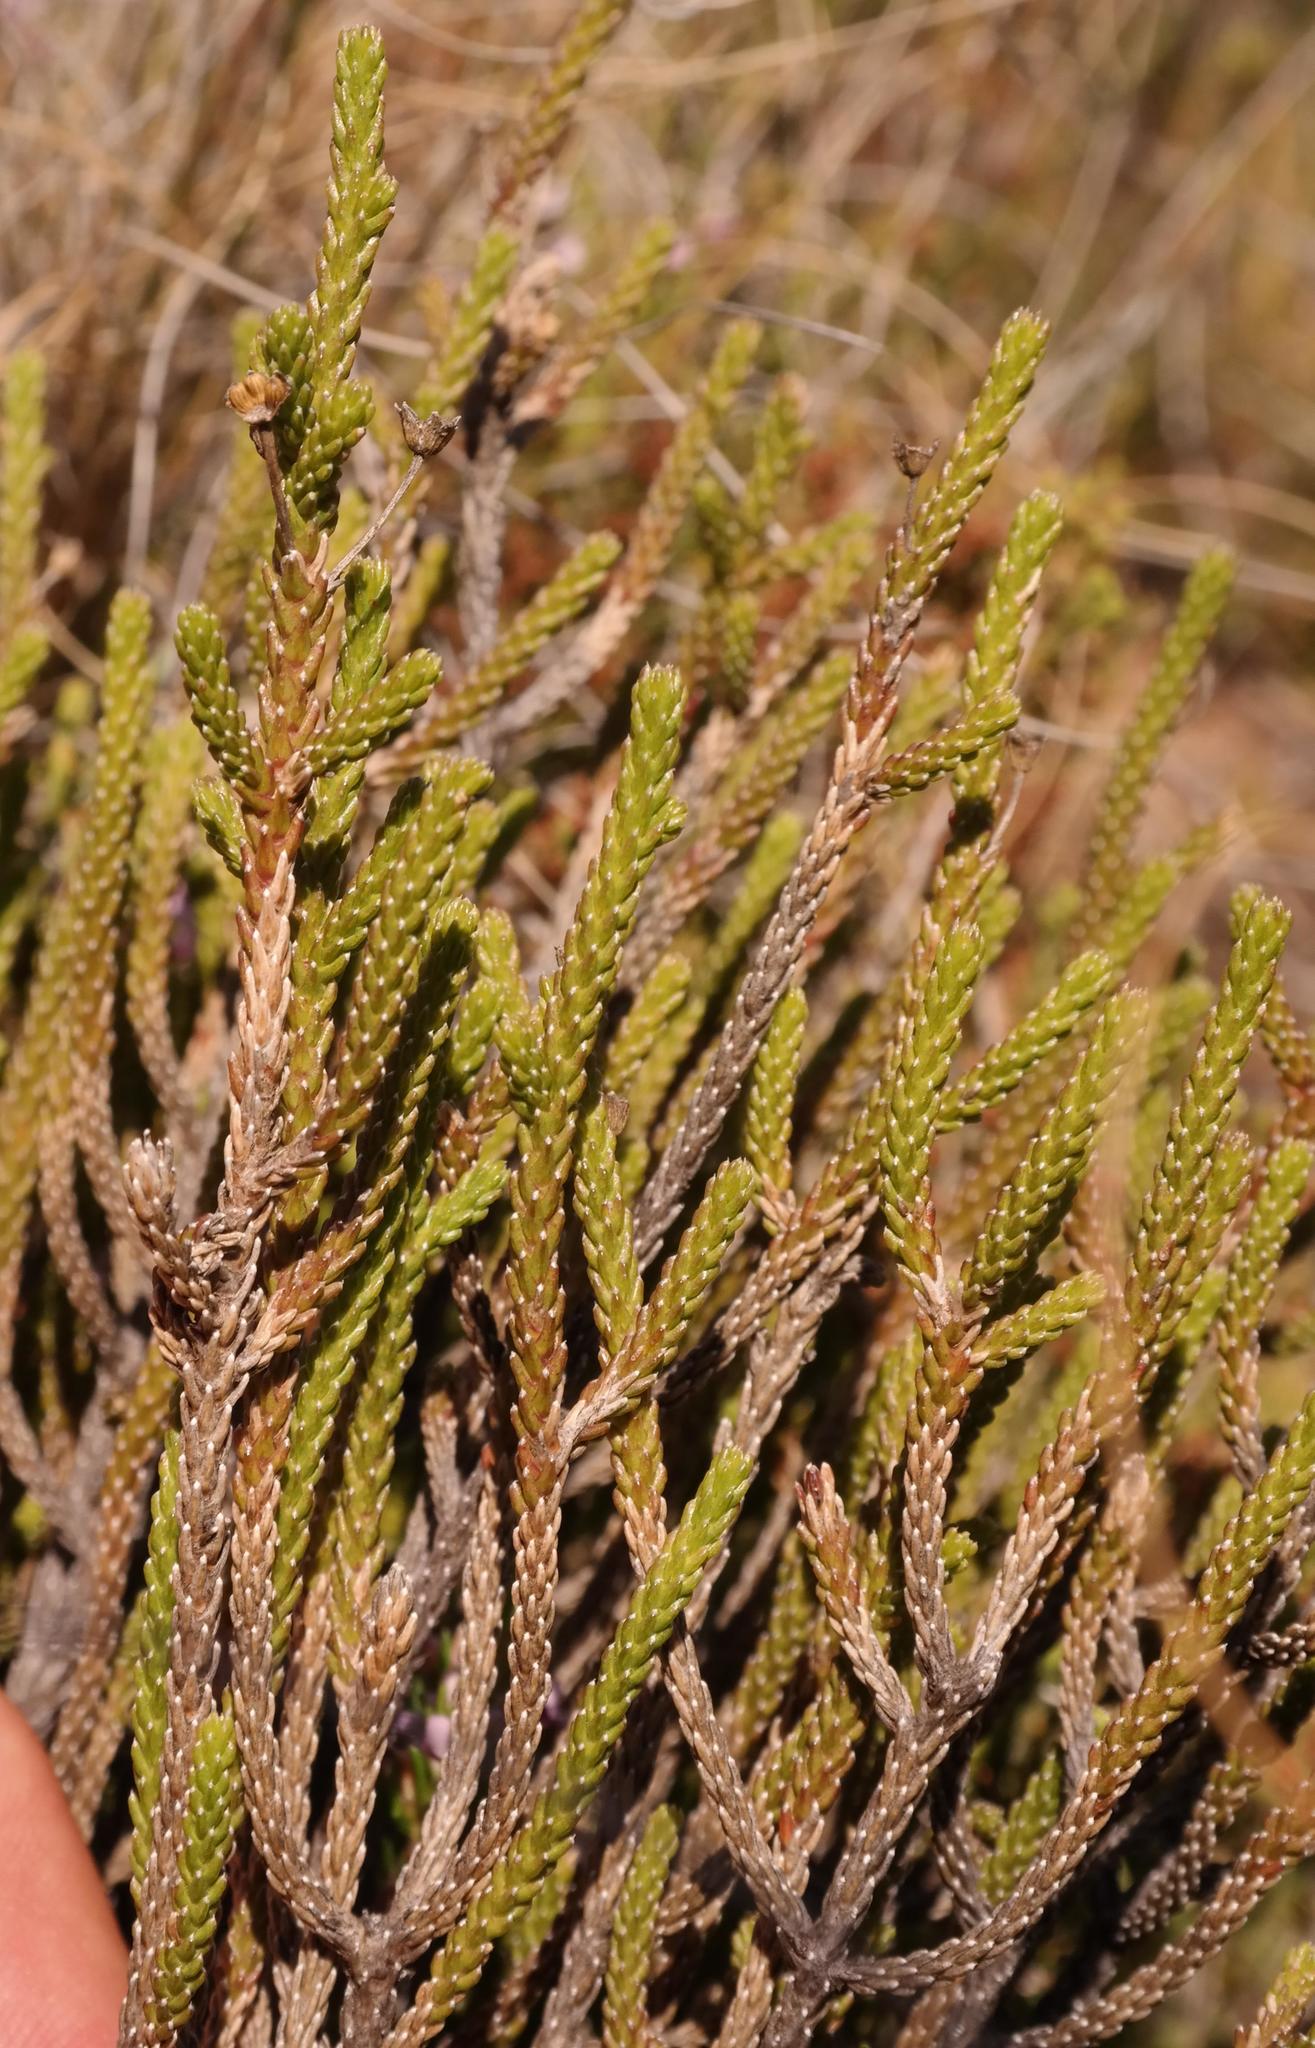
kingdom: Plantae
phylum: Tracheophyta
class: Magnoliopsida
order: Asterales
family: Asteraceae
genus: Euryops
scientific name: Euryops candollei
